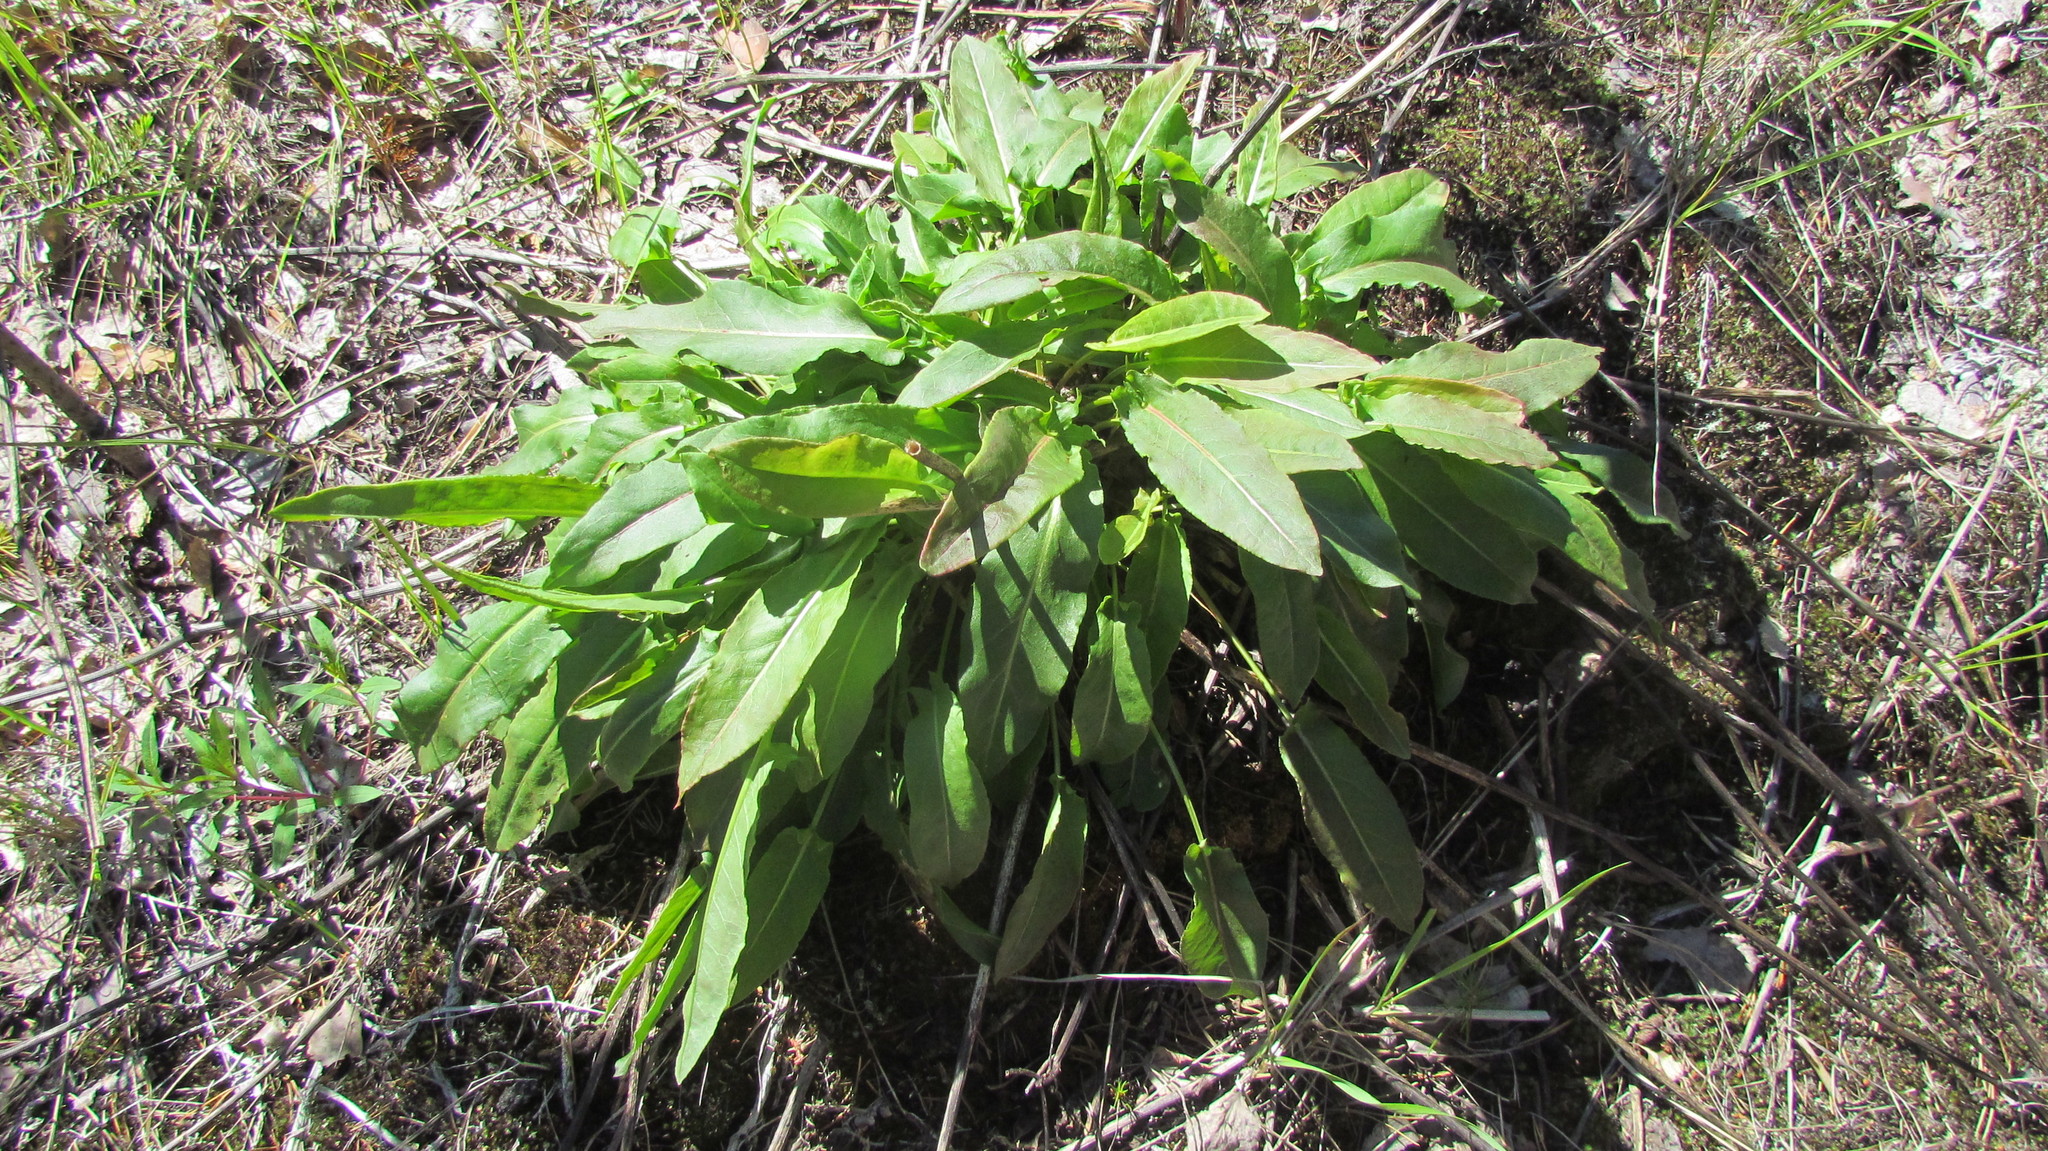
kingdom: Plantae
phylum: Tracheophyta
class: Magnoliopsida
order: Caryophyllales
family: Polygonaceae
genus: Rumex
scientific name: Rumex acetosa
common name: Garden sorrel
